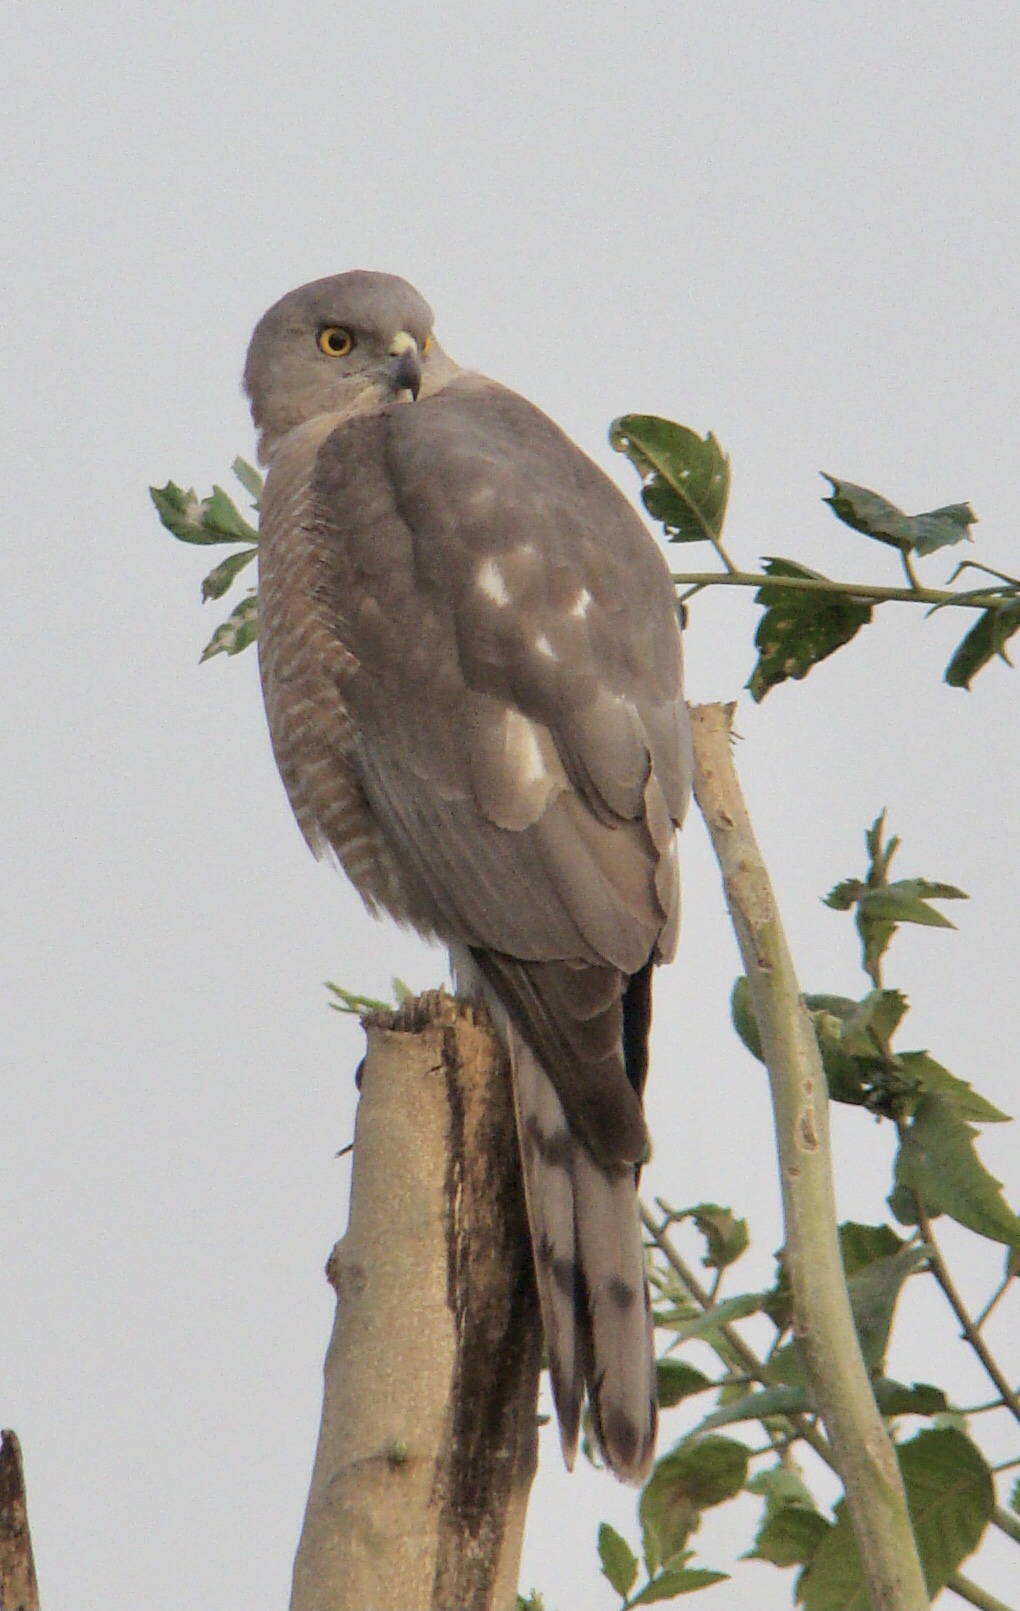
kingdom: Animalia
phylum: Chordata
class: Aves
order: Accipitriformes
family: Accipitridae
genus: Accipiter
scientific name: Accipiter badius
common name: Shikra
